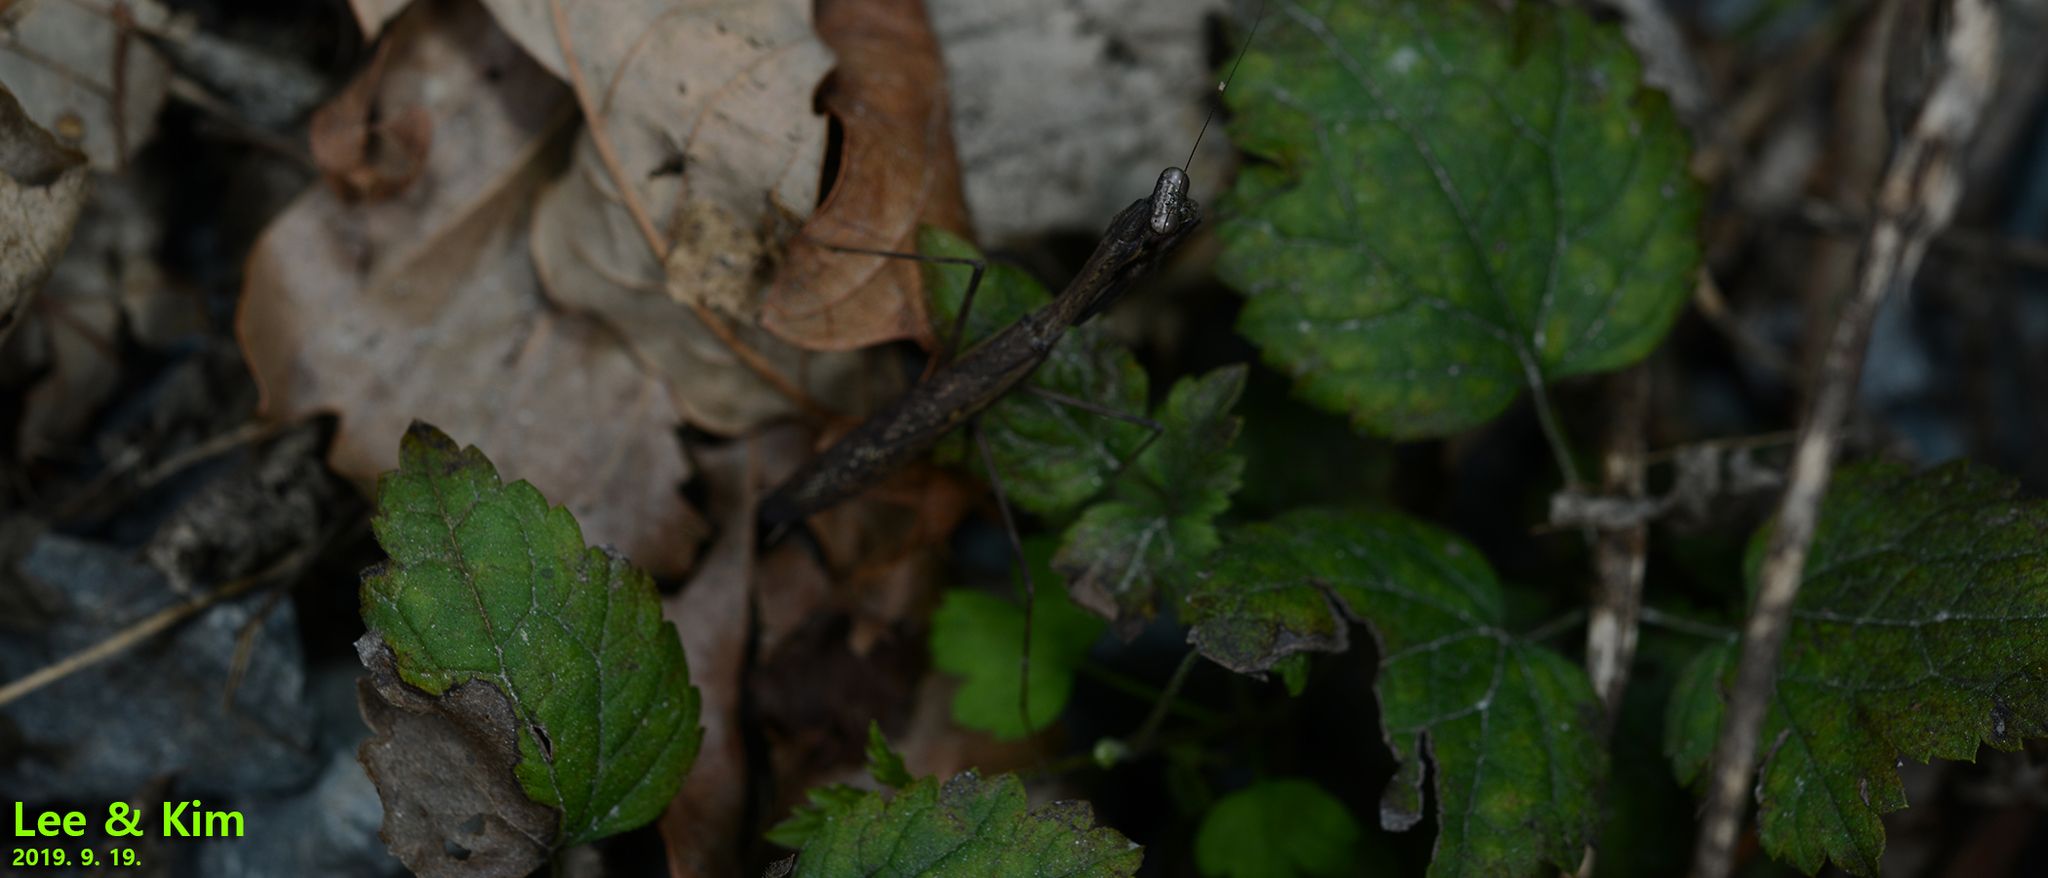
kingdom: Animalia
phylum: Arthropoda
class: Insecta
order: Mantodea
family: Mantidae
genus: Statilia
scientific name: Statilia maculata
